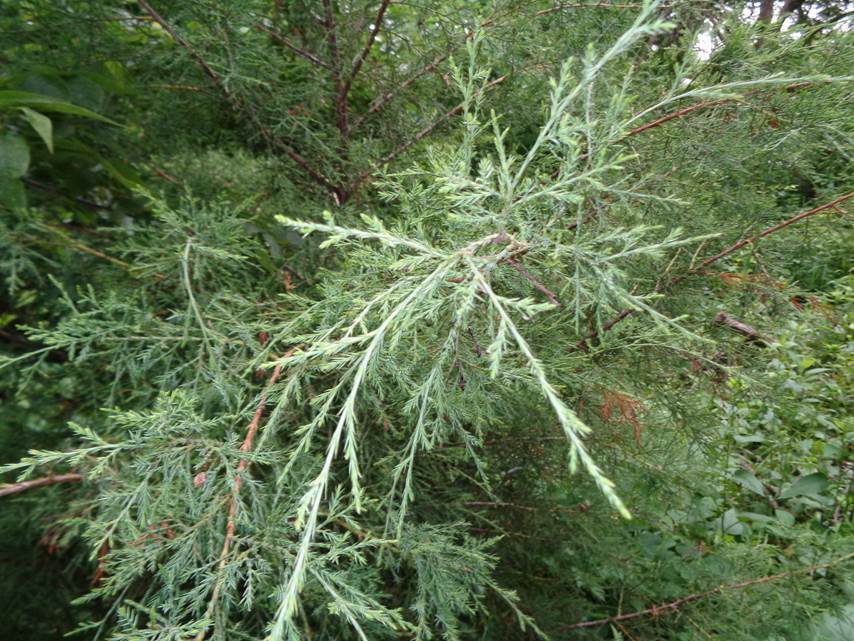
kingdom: Plantae
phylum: Tracheophyta
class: Pinopsida
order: Pinales
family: Cupressaceae
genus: Juniperus
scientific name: Juniperus virginiana
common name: Red juniper
